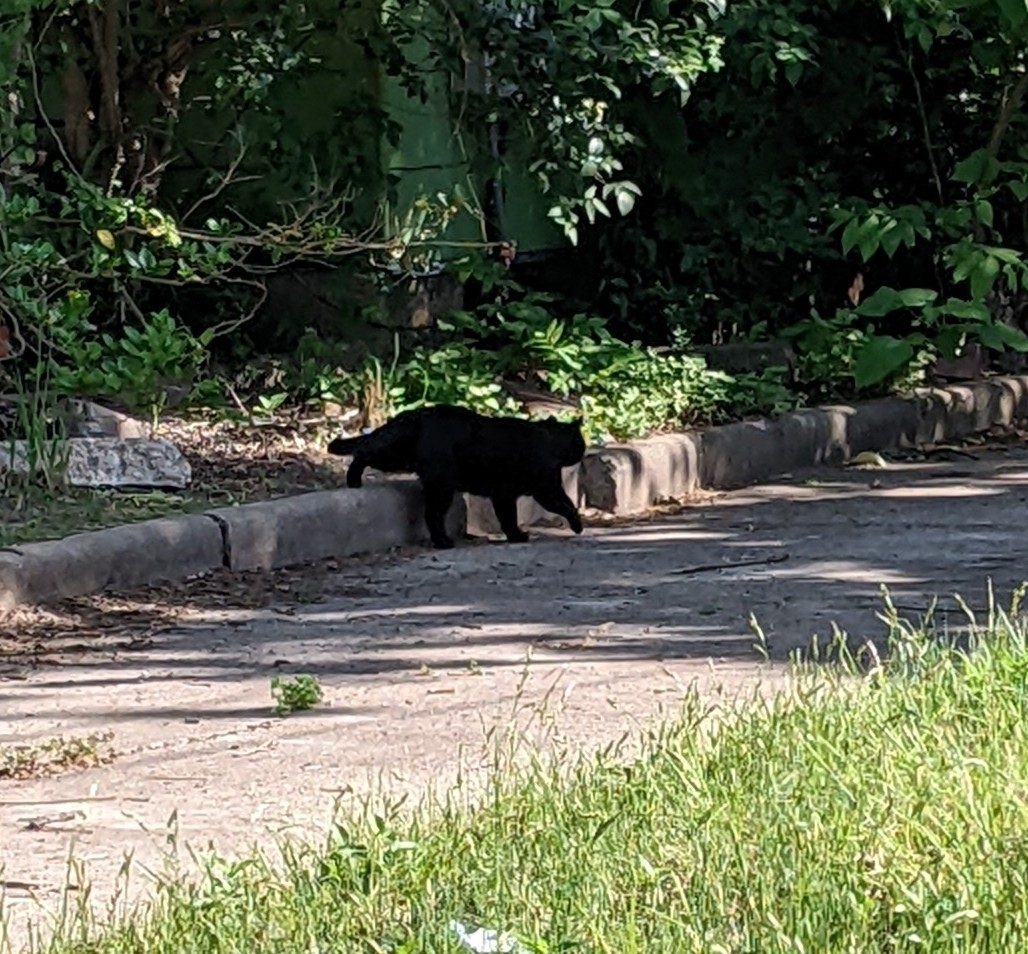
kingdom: Animalia
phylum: Chordata
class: Mammalia
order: Carnivora
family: Felidae
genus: Felis
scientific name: Felis catus
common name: Domestic cat
